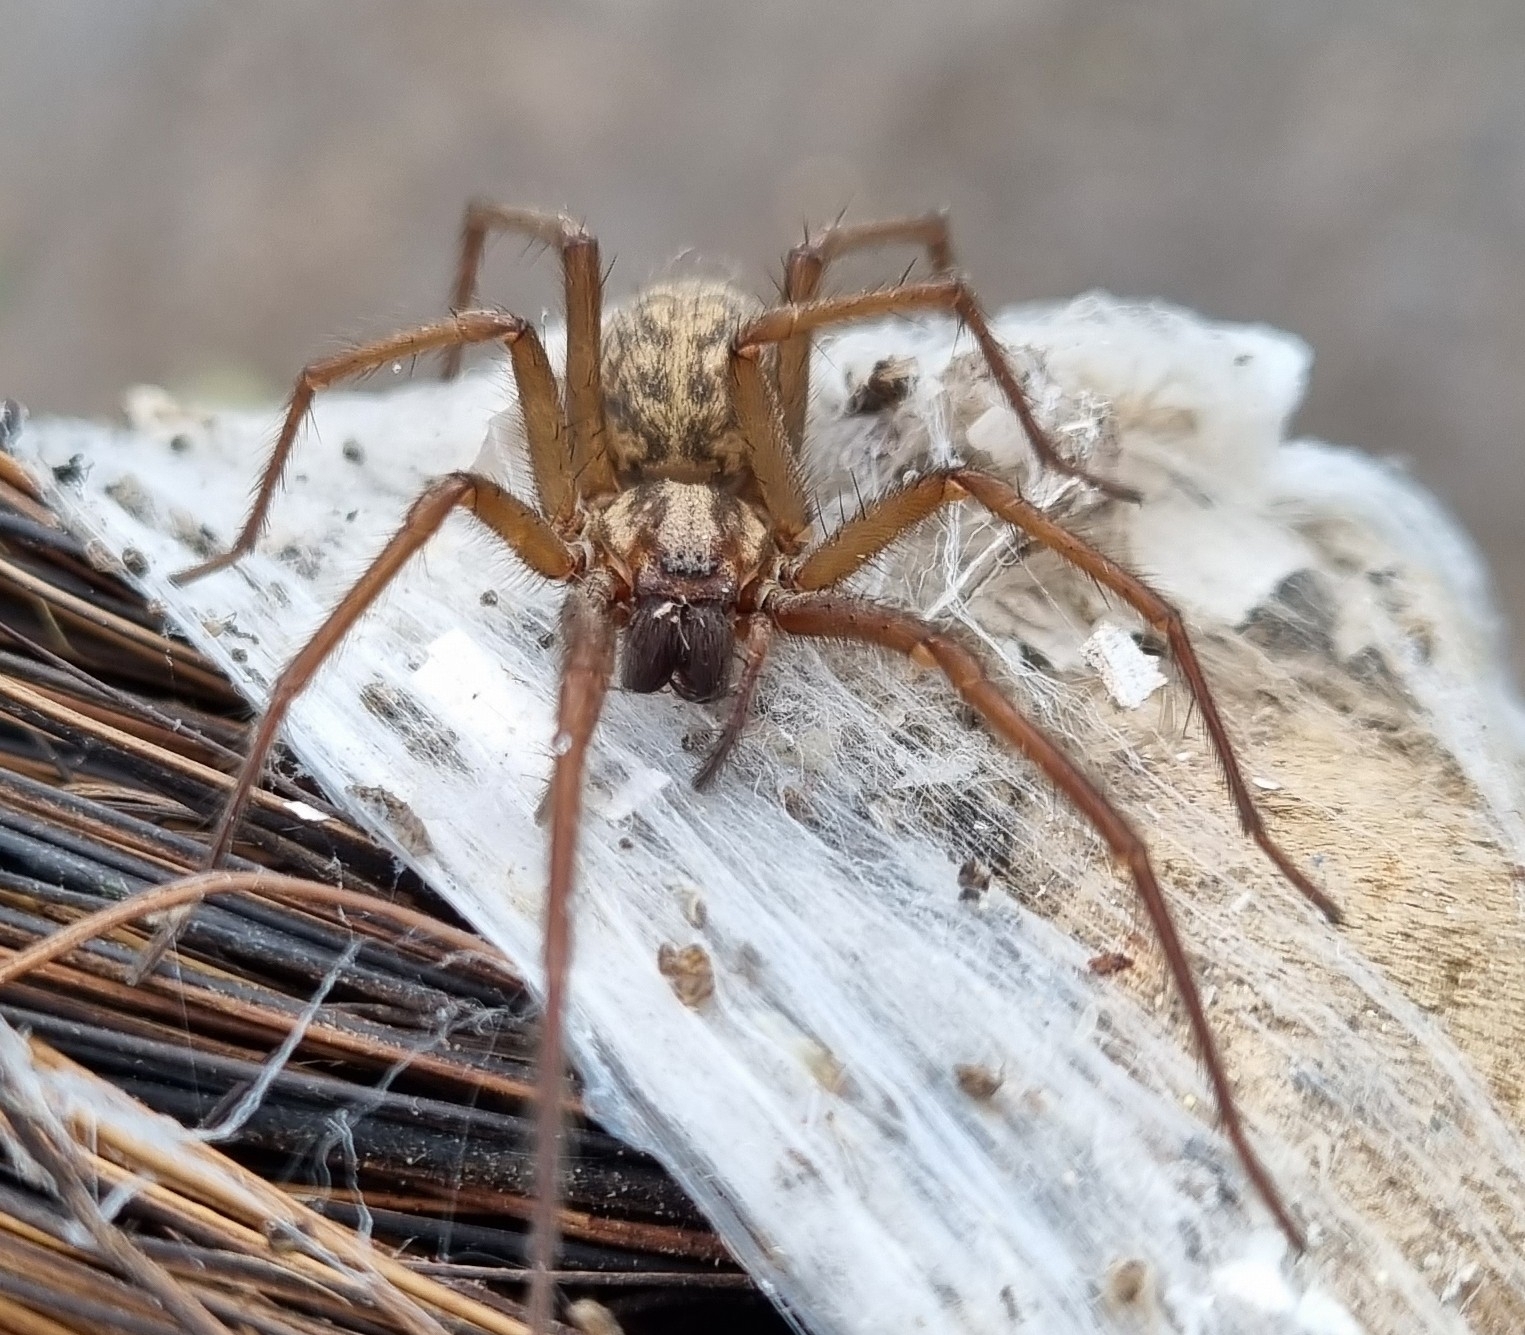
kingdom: Animalia
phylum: Arthropoda
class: Arachnida
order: Araneae
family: Agelenidae
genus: Eratigena
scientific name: Eratigena duellica
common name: Giant house spider
